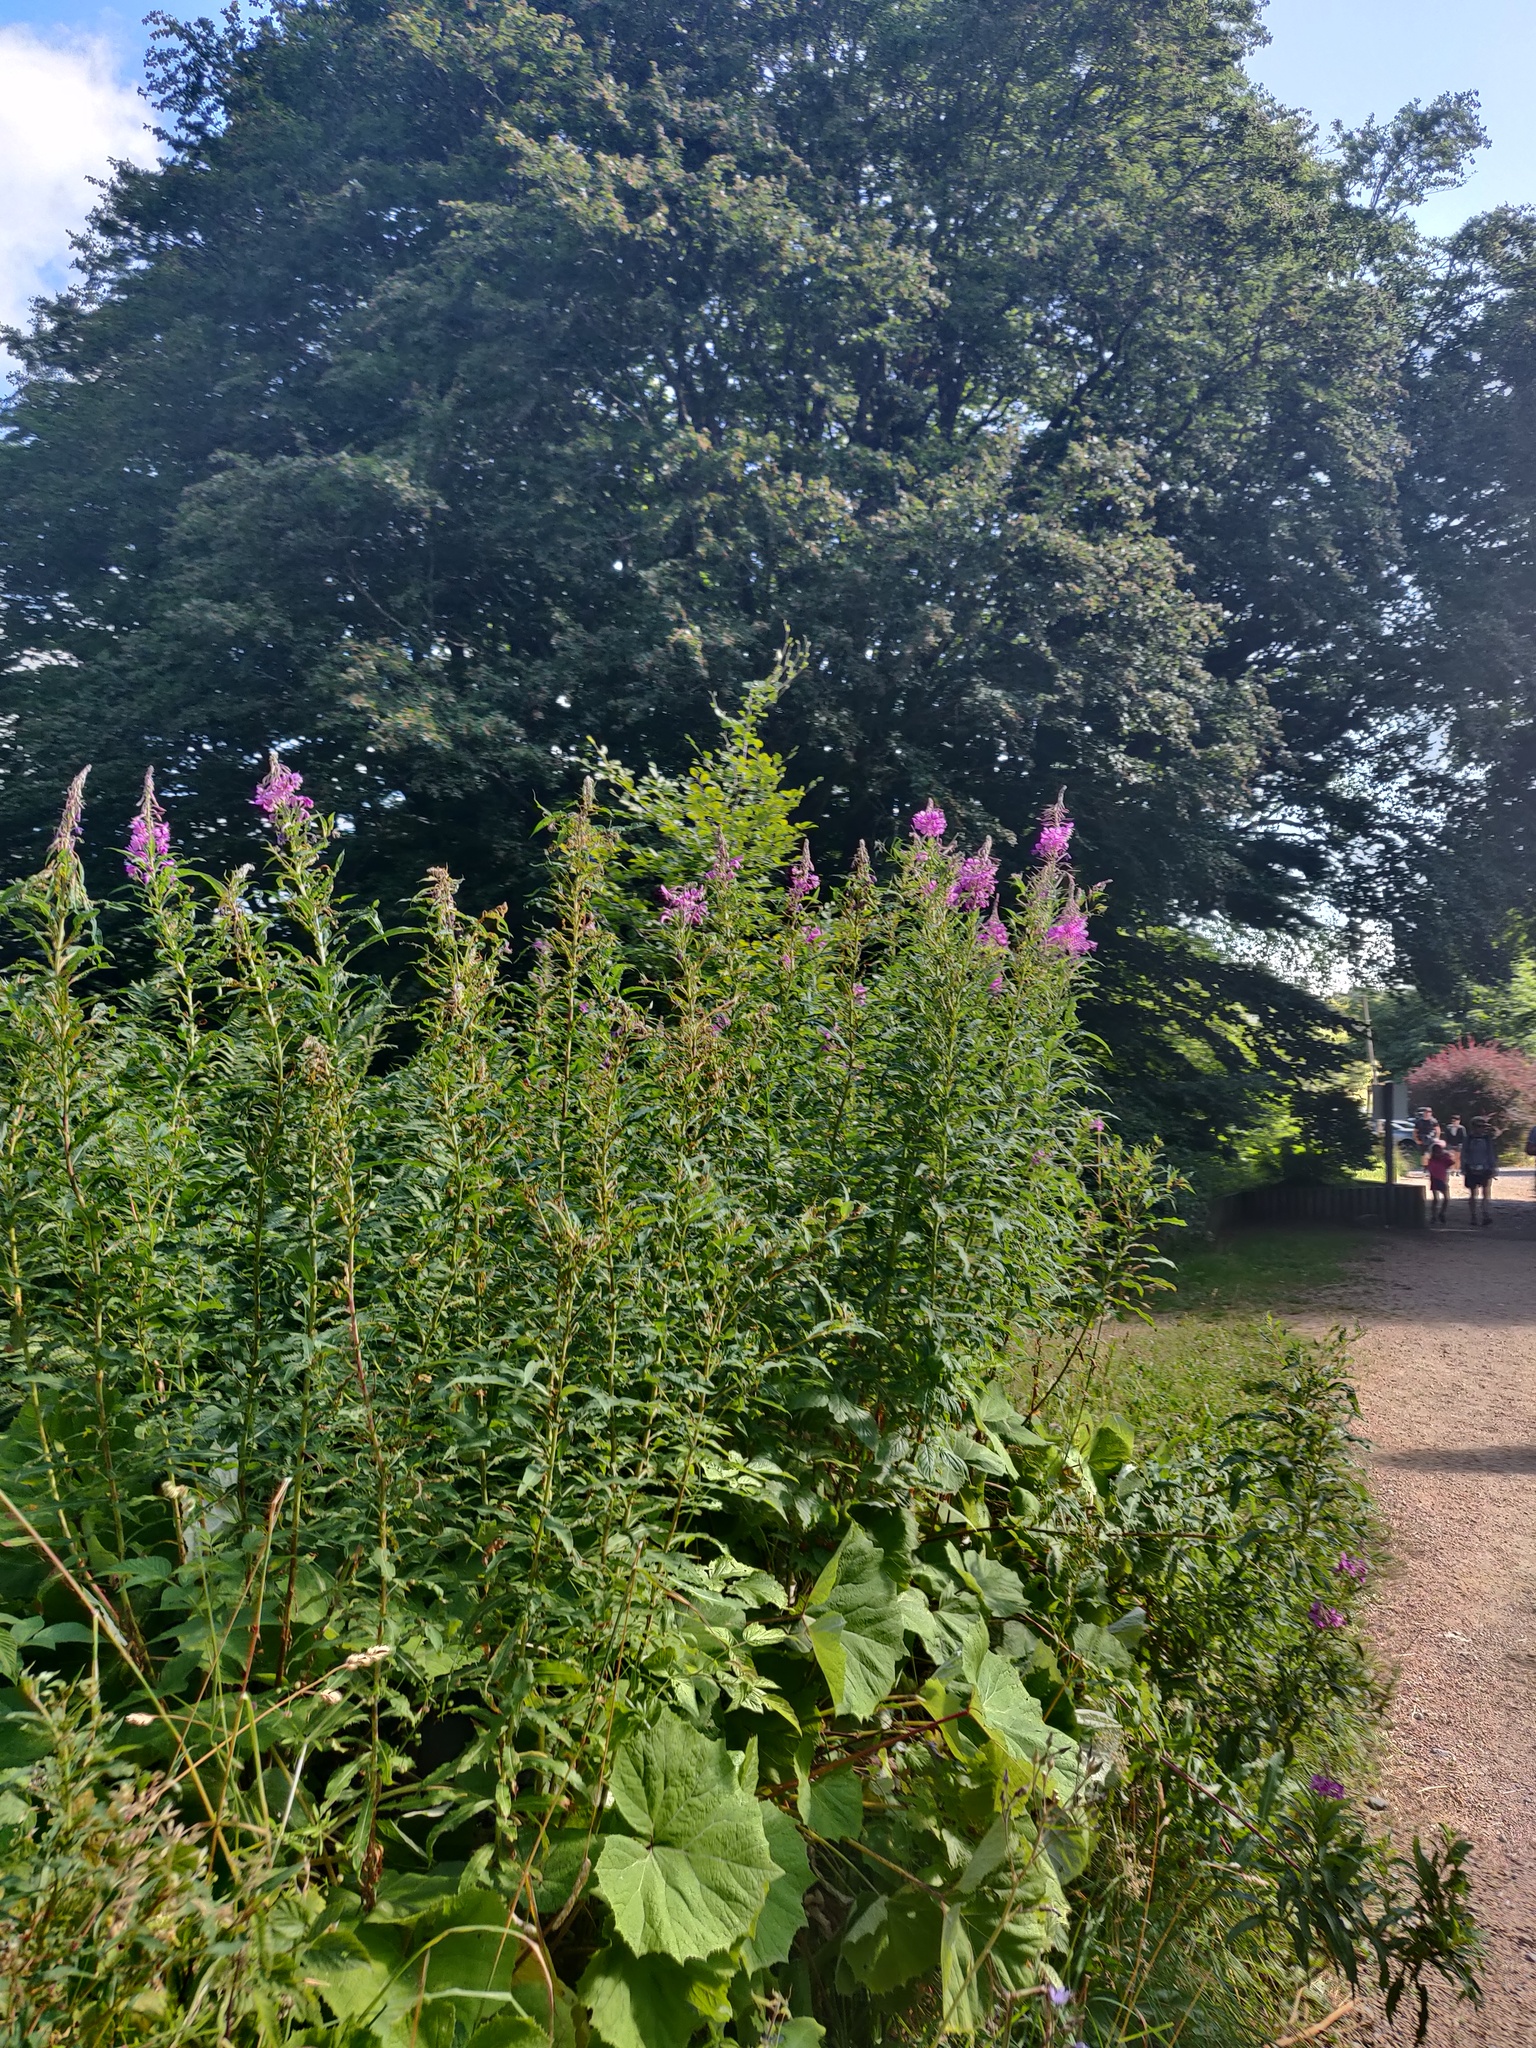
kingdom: Plantae
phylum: Tracheophyta
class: Magnoliopsida
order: Myrtales
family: Onagraceae
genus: Chamaenerion
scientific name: Chamaenerion angustifolium
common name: Fireweed
